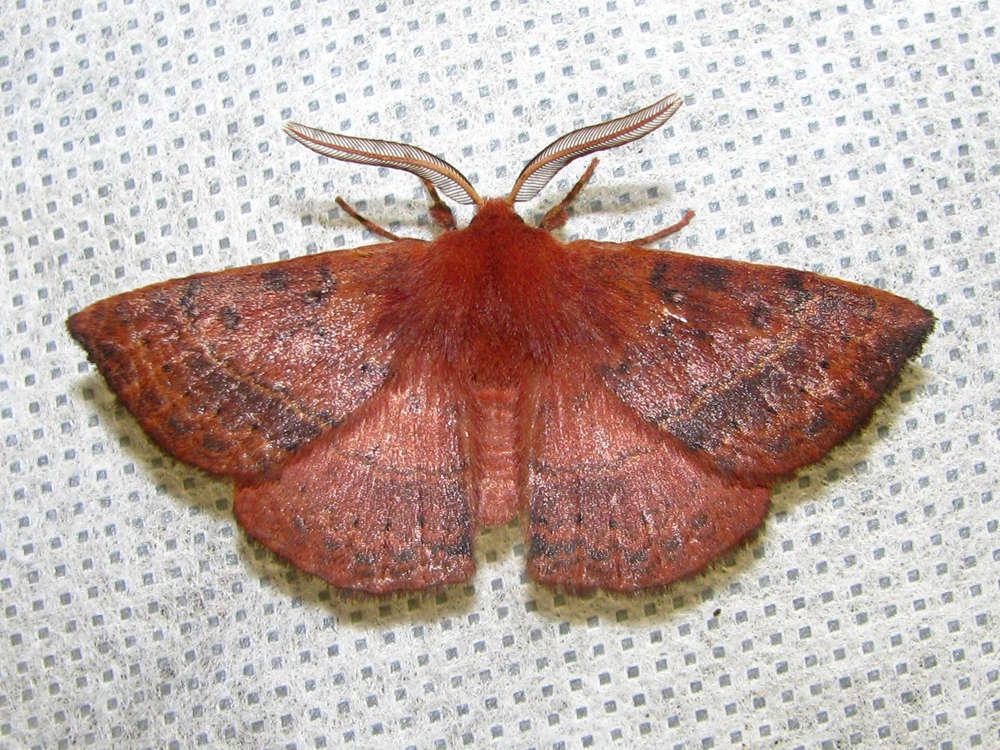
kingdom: Animalia
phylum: Arthropoda
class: Insecta
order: Lepidoptera
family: Anthelidae
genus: Anthela
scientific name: Anthela repleta
